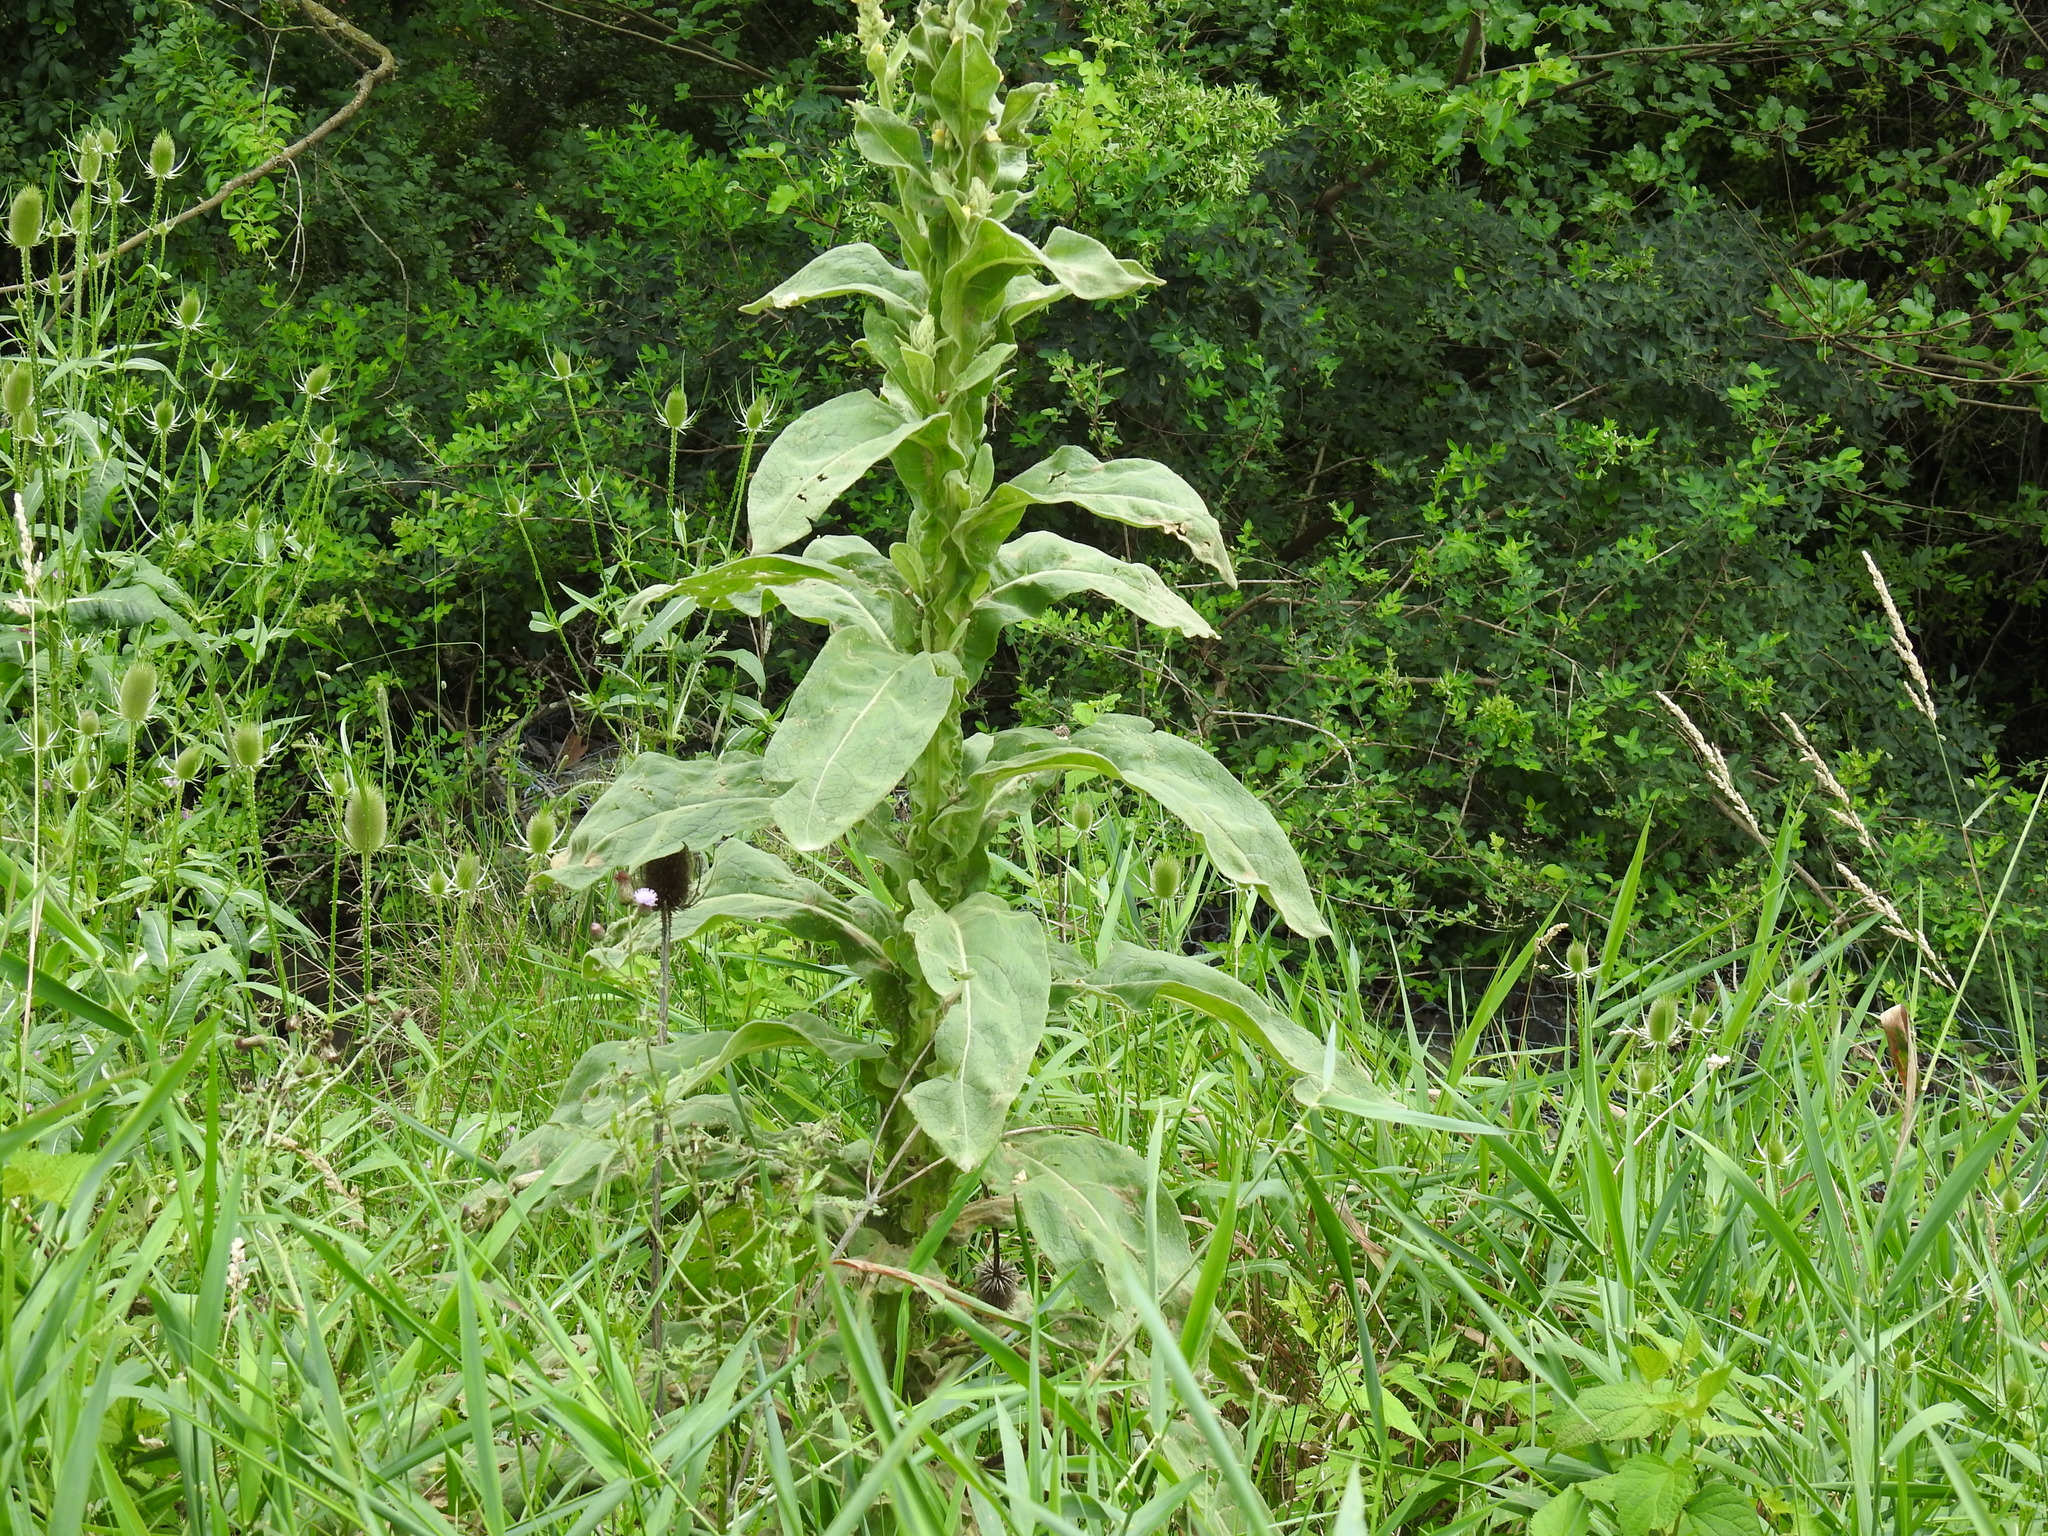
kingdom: Plantae
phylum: Tracheophyta
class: Magnoliopsida
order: Lamiales
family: Scrophulariaceae
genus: Verbascum
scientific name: Verbascum thapsus
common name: Common mullein
